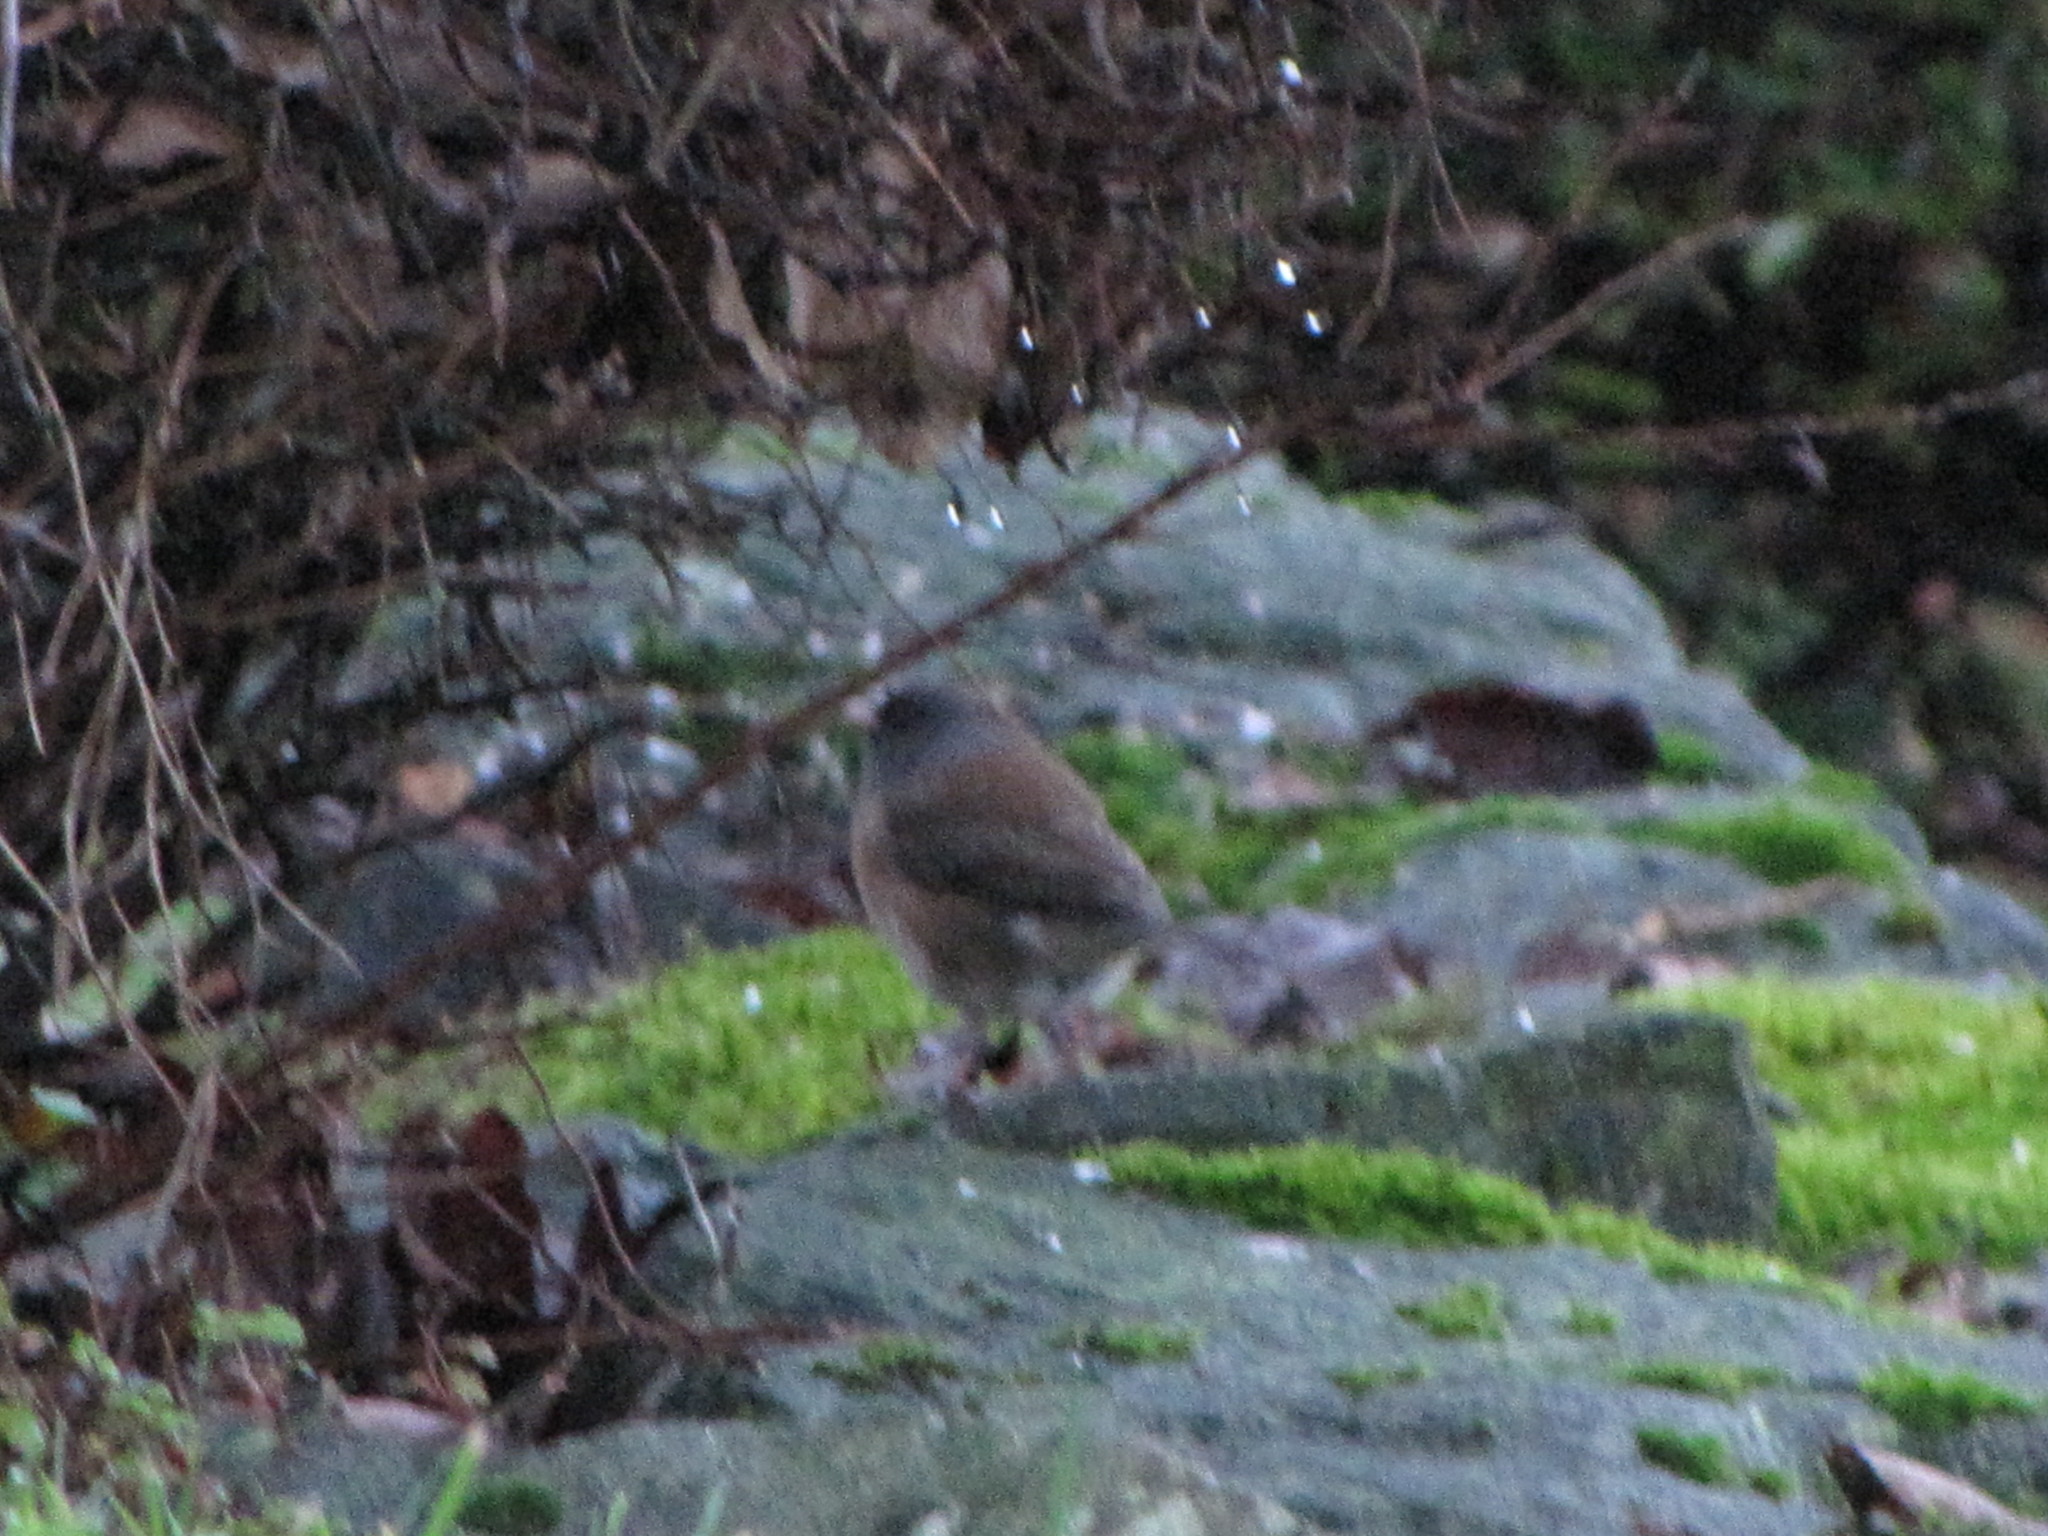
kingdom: Animalia
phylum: Chordata
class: Aves
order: Passeriformes
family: Passerellidae
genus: Junco
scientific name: Junco hyemalis
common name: Dark-eyed junco
